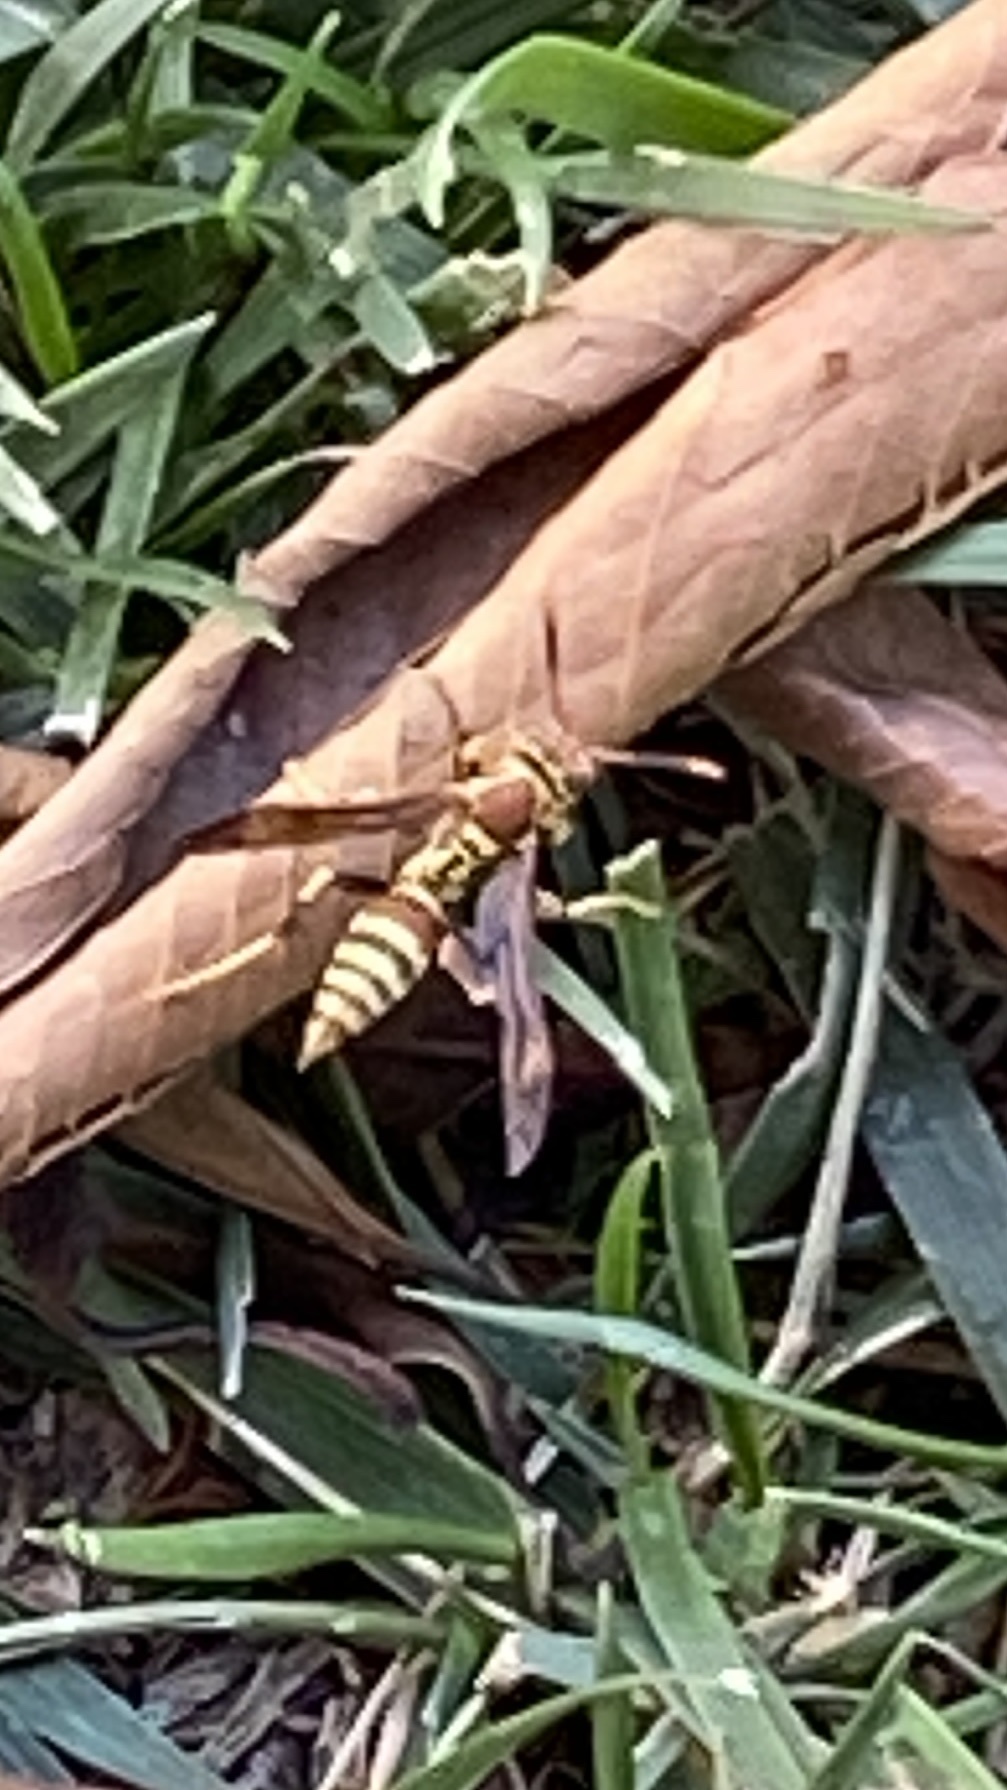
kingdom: Animalia
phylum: Arthropoda
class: Insecta
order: Hymenoptera
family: Eumenidae
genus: Polistes
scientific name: Polistes exclamans
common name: Paper wasp
